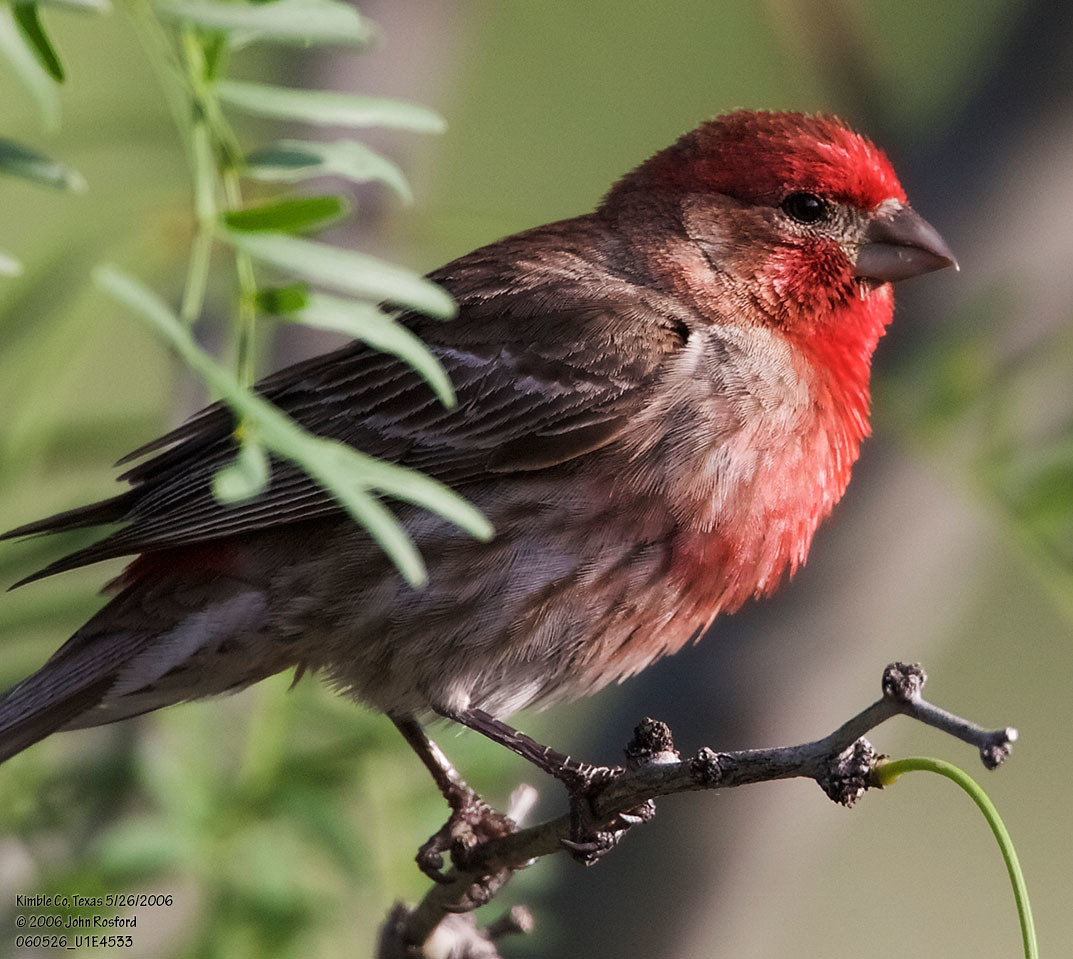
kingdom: Animalia
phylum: Chordata
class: Aves
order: Passeriformes
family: Fringillidae
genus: Haemorhous
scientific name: Haemorhous mexicanus
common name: House finch
